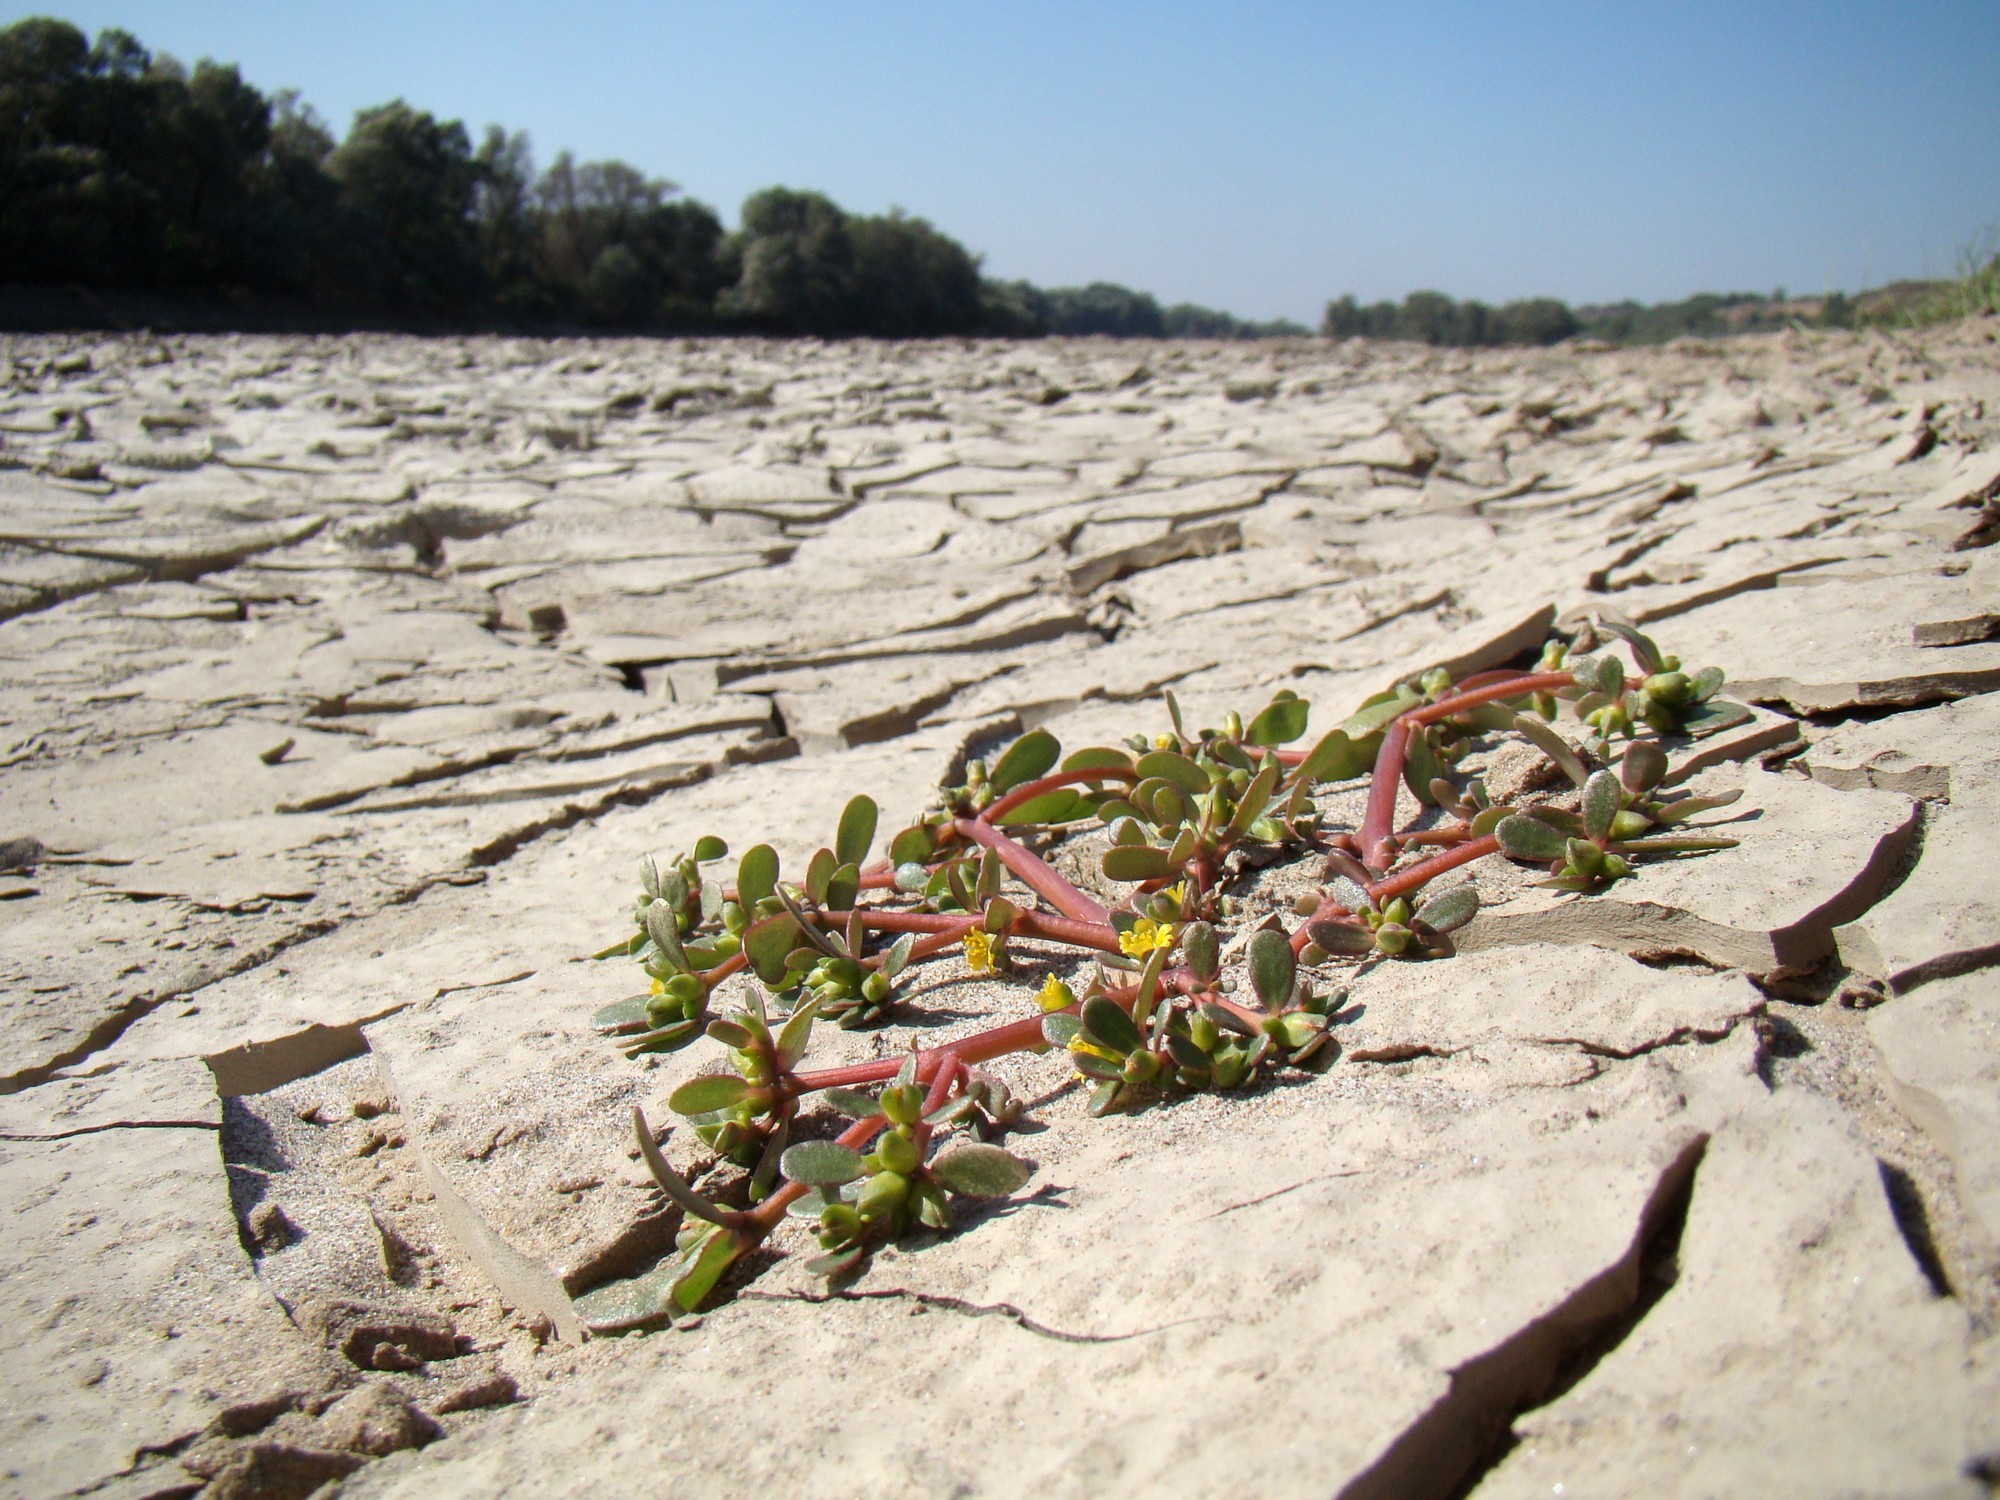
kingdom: Plantae
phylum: Tracheophyta
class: Magnoliopsida
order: Caryophyllales
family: Portulacaceae
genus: Portulaca
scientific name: Portulaca oleracea
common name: Common purslane
